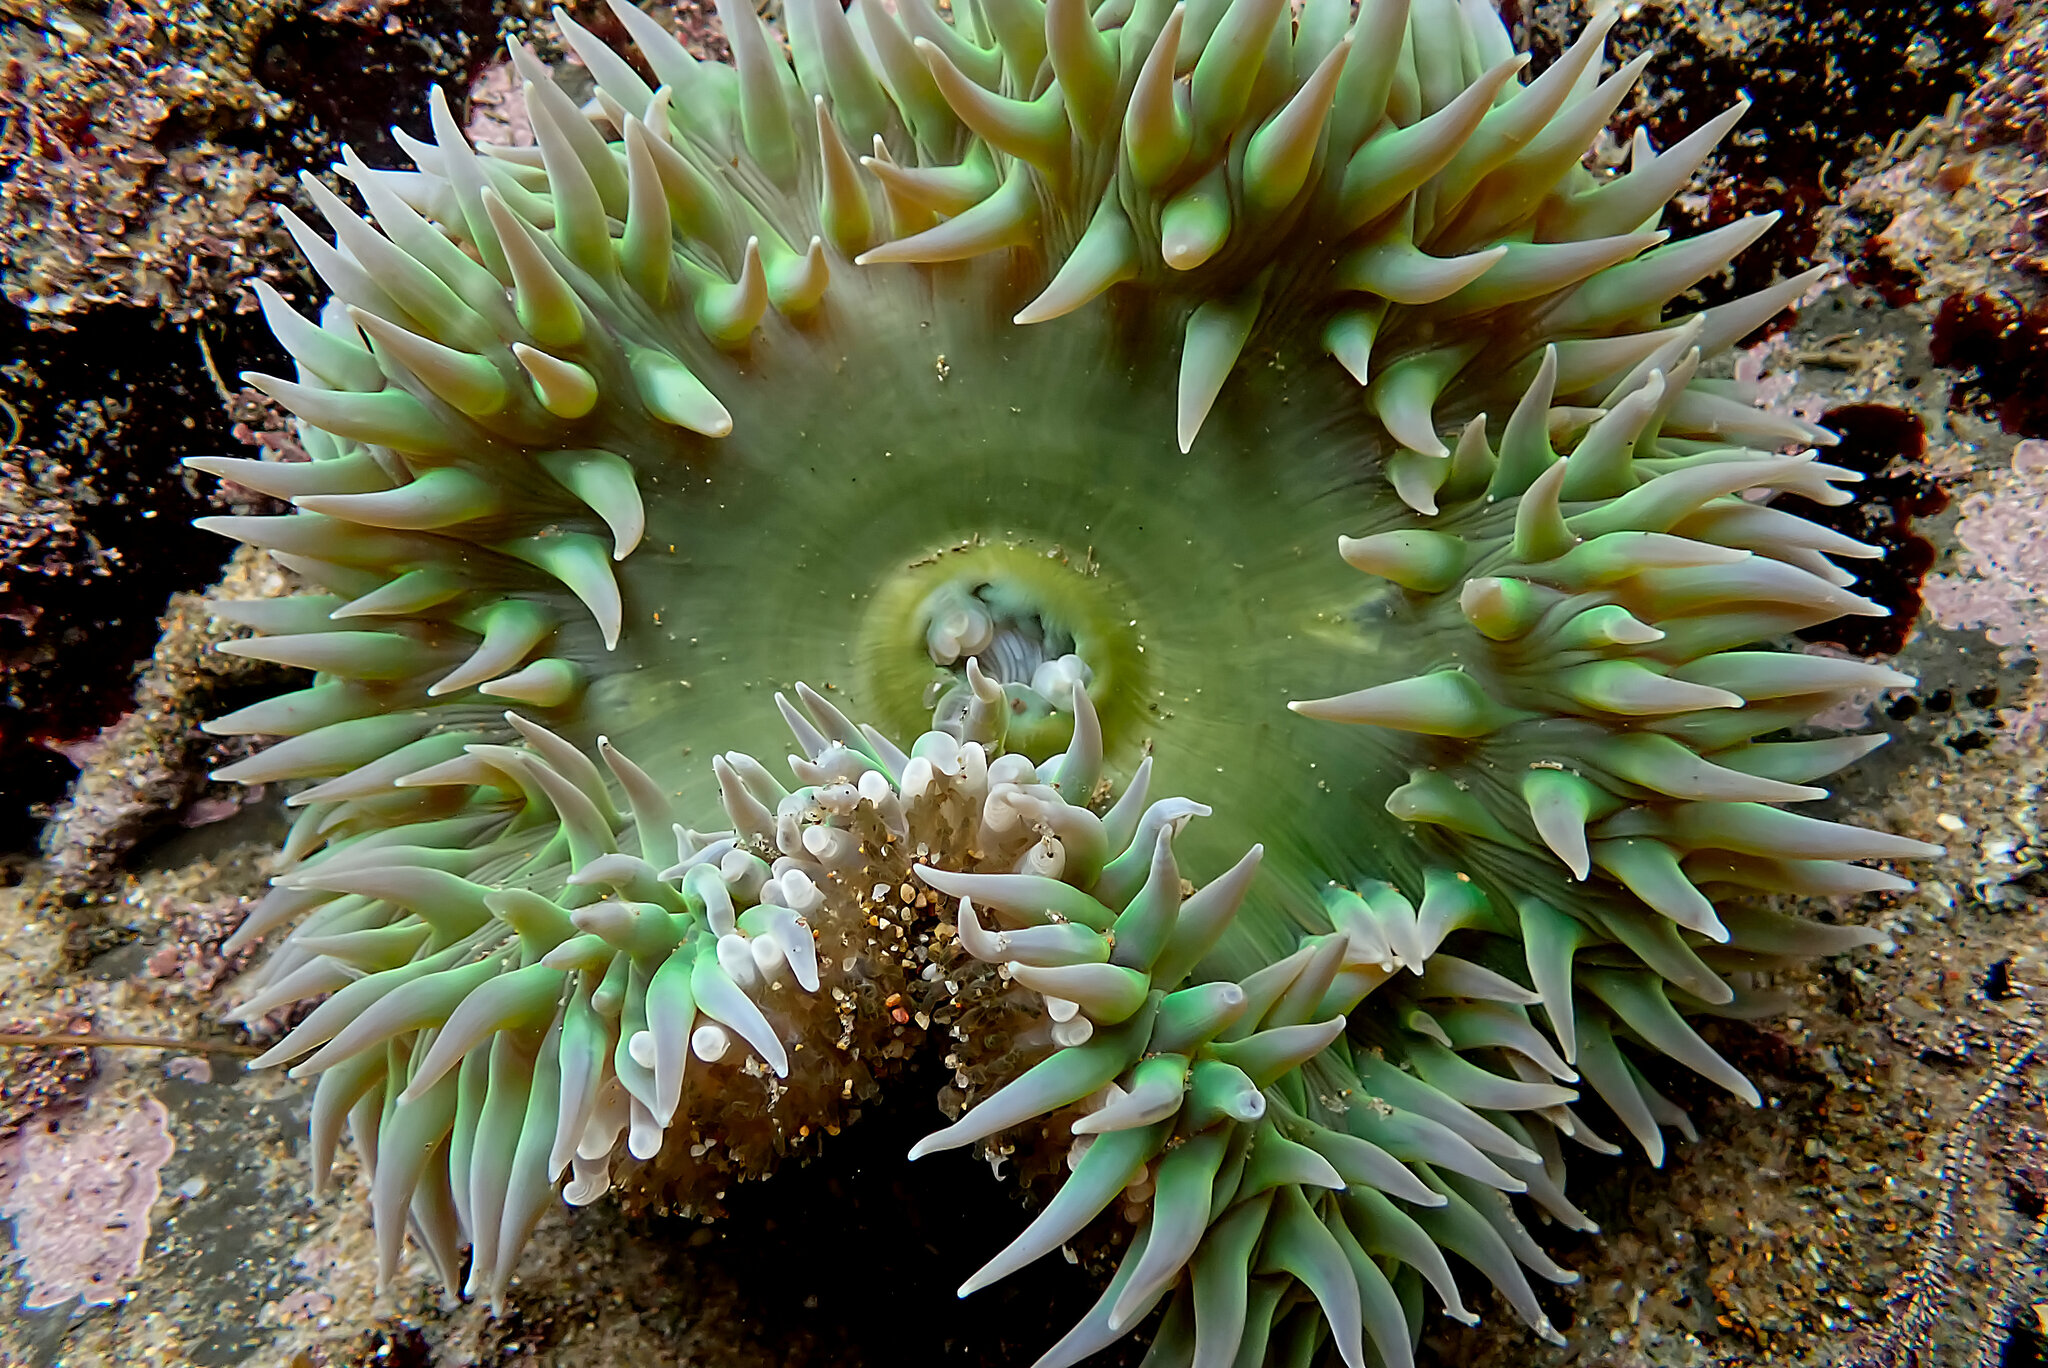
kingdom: Animalia
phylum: Cnidaria
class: Anthozoa
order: Actiniaria
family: Actiniidae
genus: Anthopleura
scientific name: Anthopleura xanthogrammica
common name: Giant green anemone
